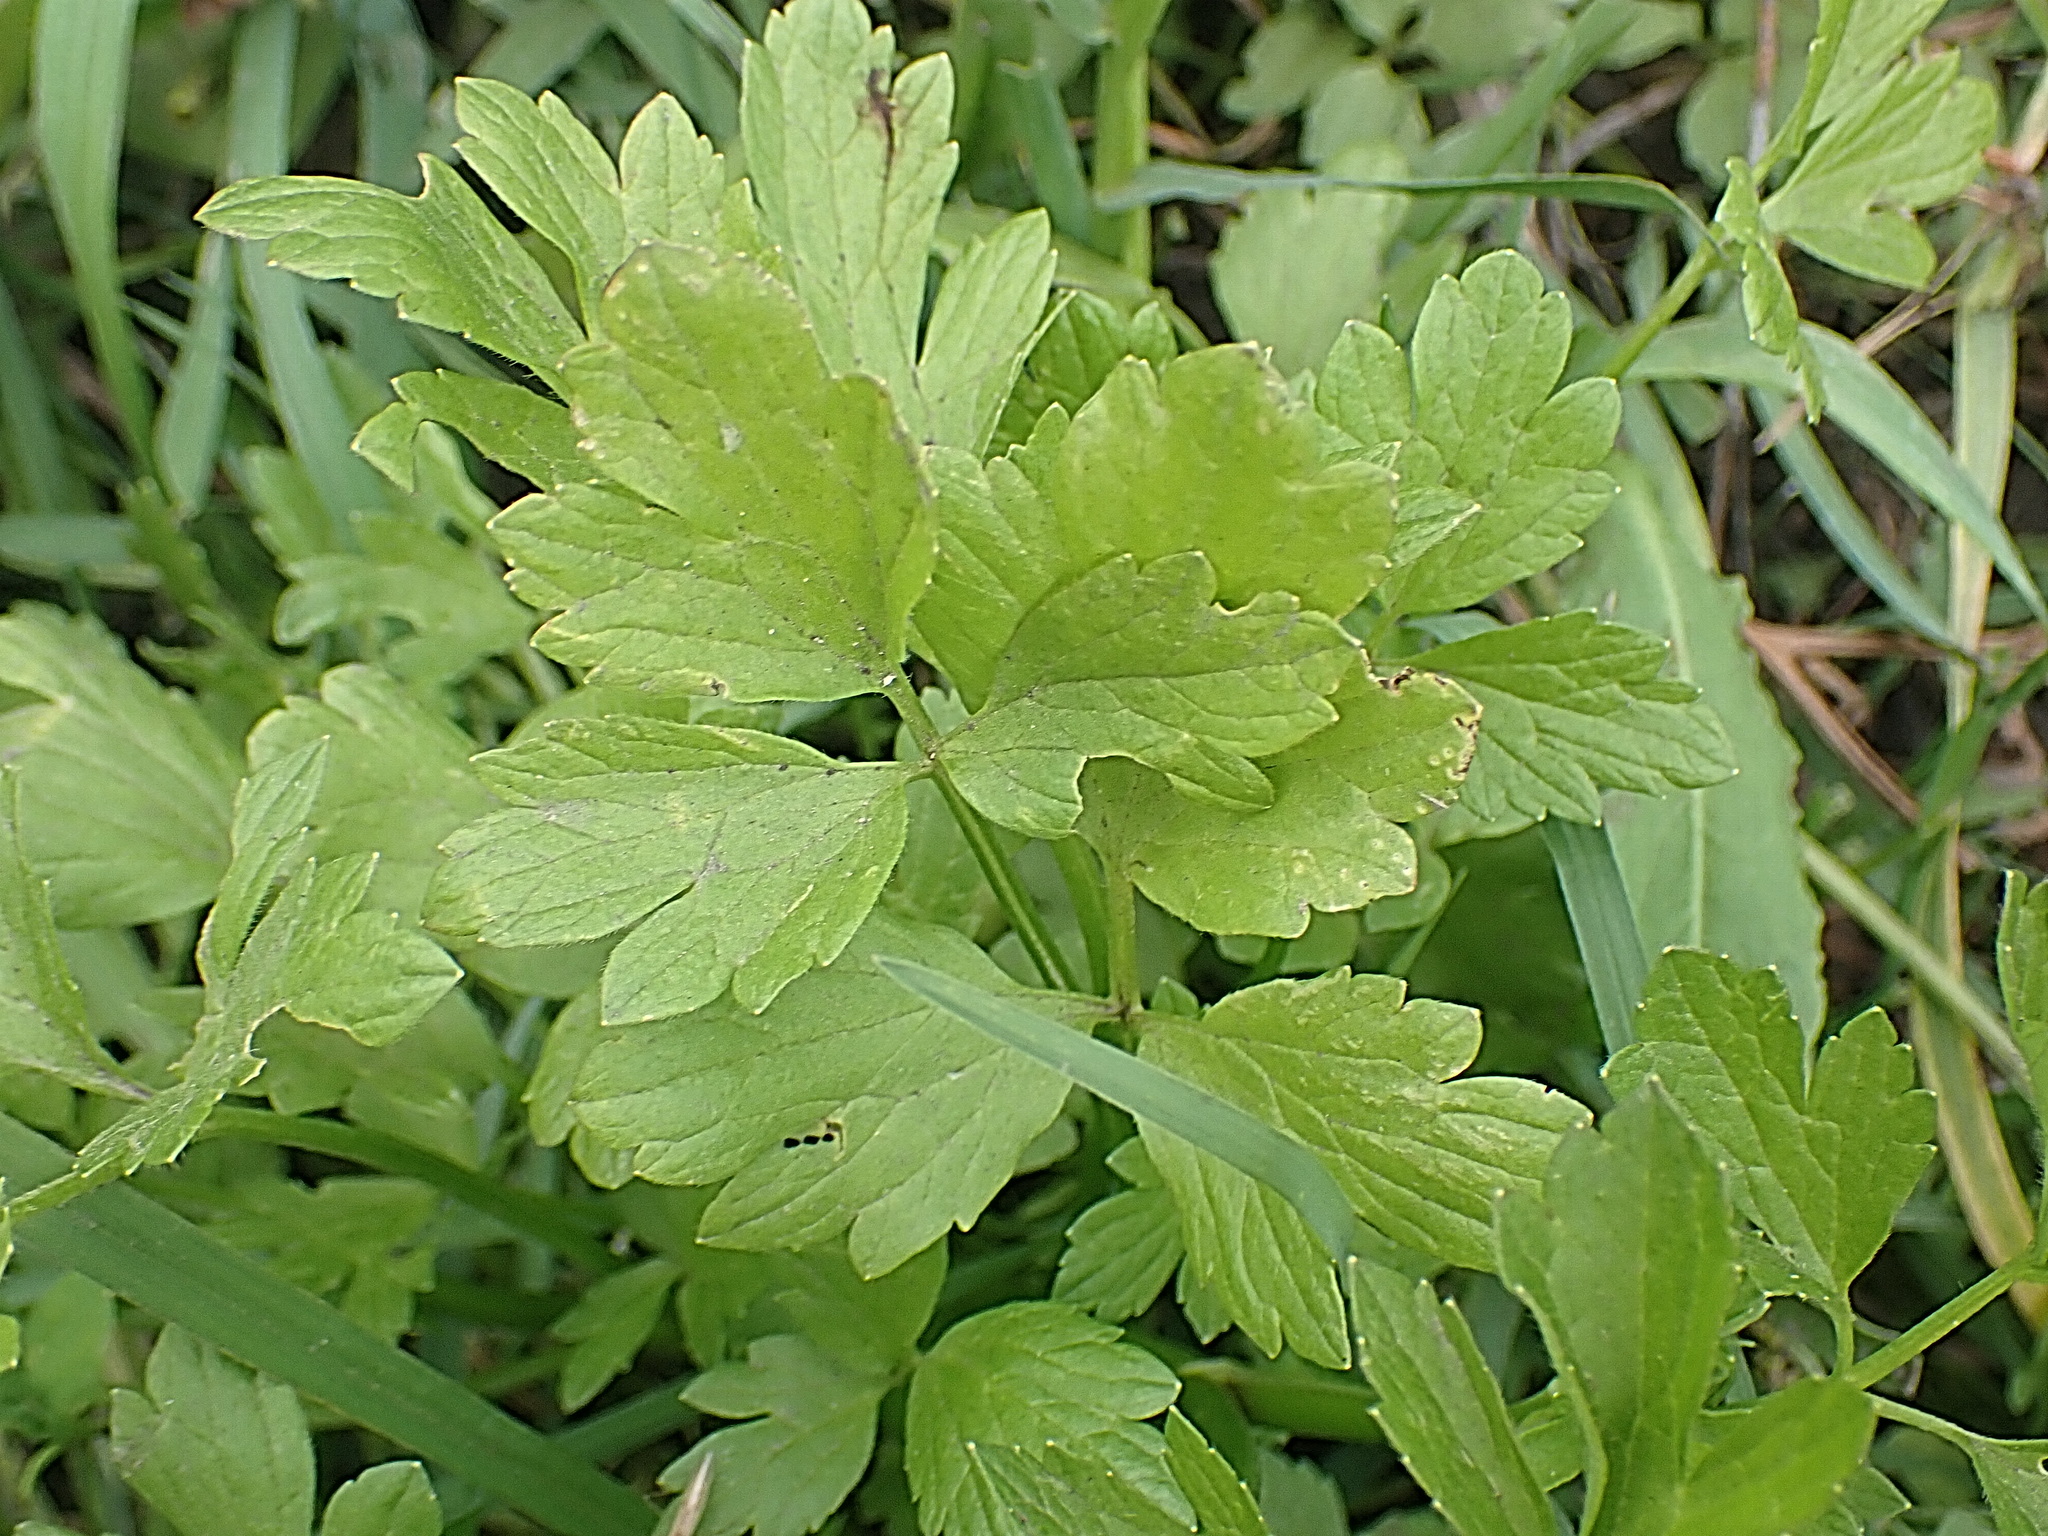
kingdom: Plantae
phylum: Tracheophyta
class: Magnoliopsida
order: Ranunculales
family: Ranunculaceae
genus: Ranunculus
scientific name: Ranunculus multifidus
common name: Wild buttercup
